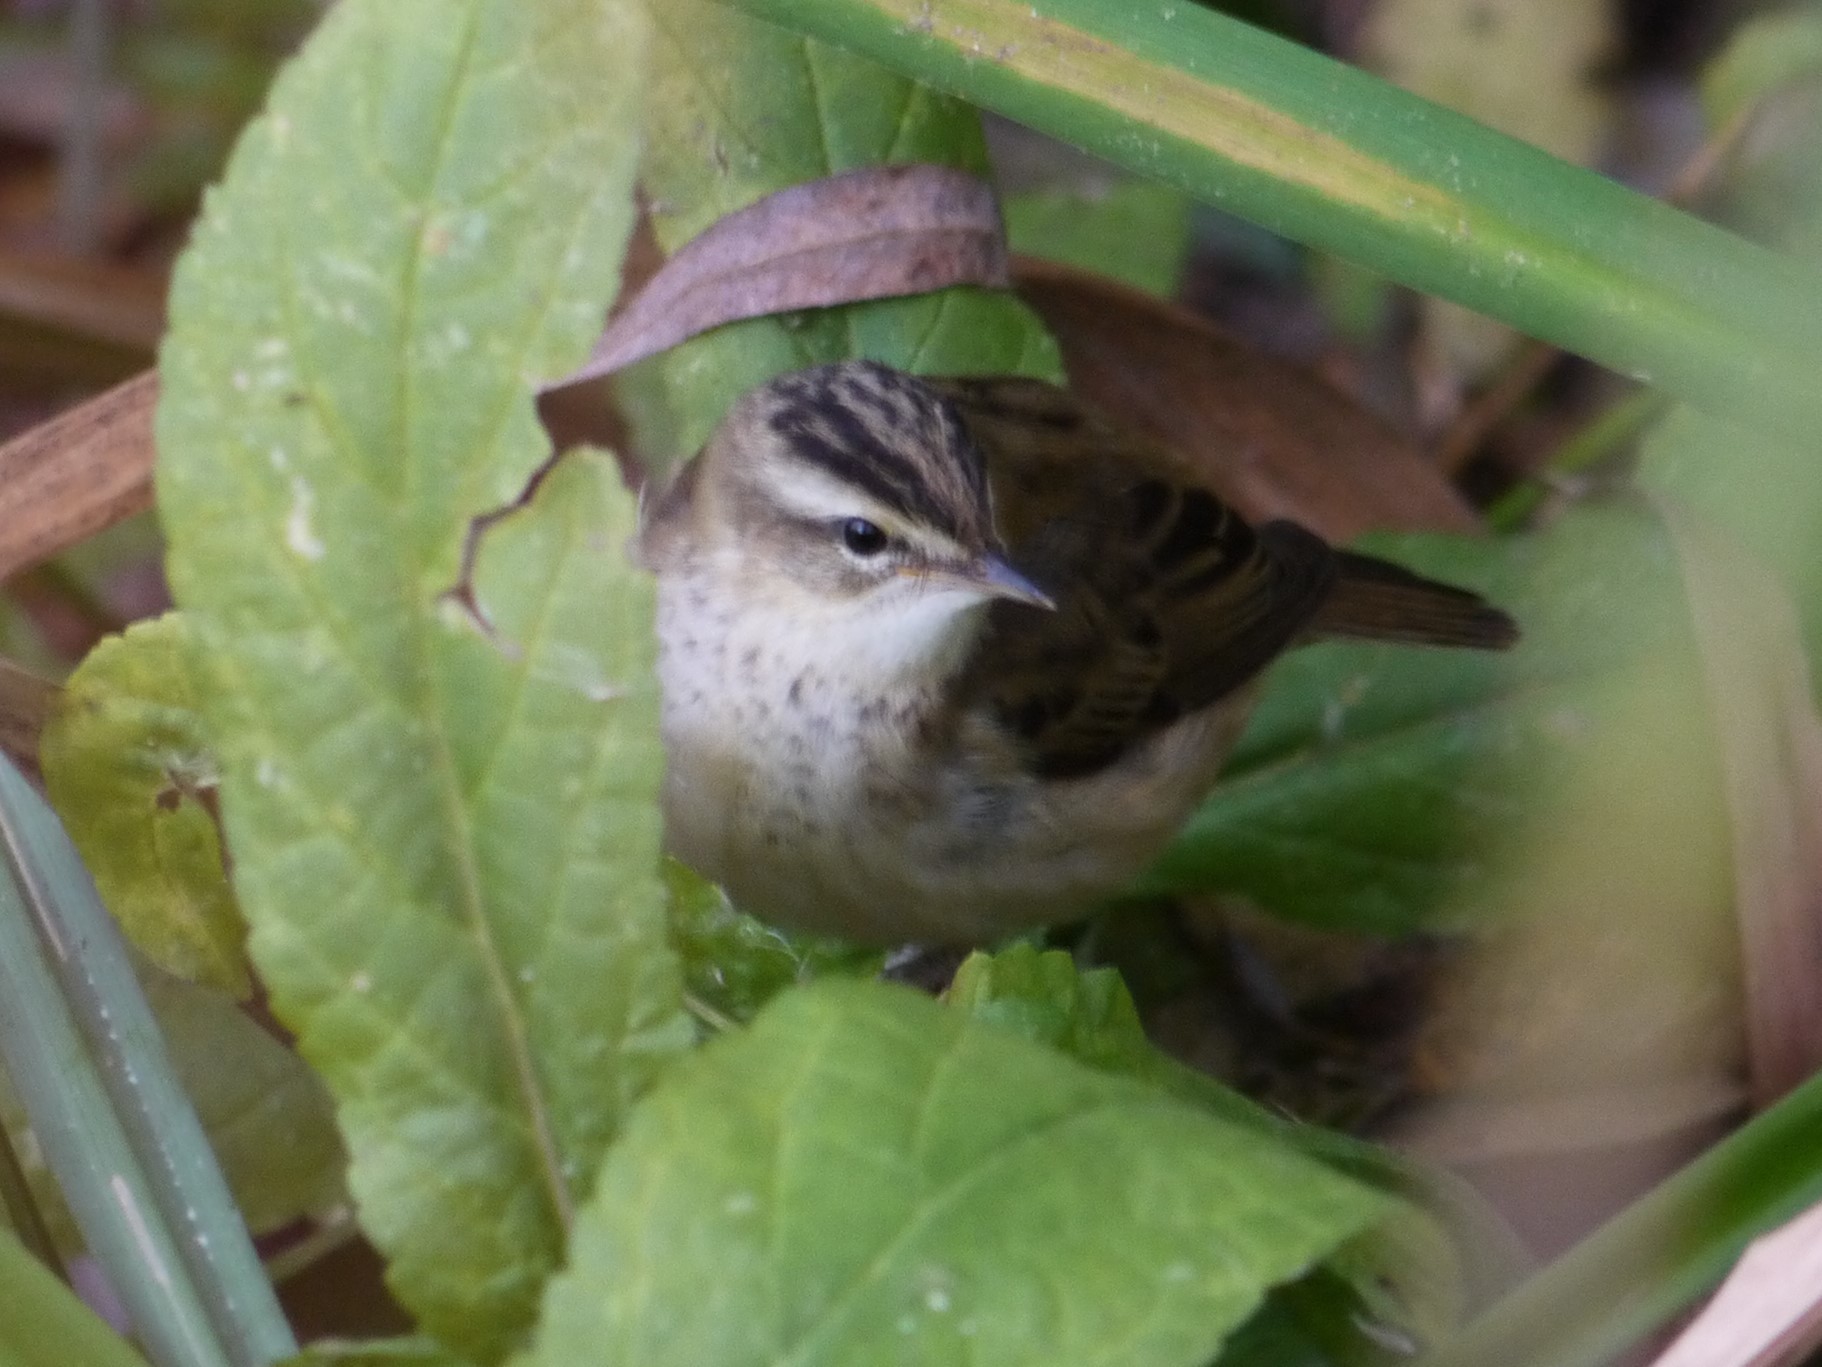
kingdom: Animalia
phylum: Chordata
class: Aves
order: Passeriformes
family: Acrocephalidae
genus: Acrocephalus
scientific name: Acrocephalus schoenobaenus
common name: Sedge warbler
